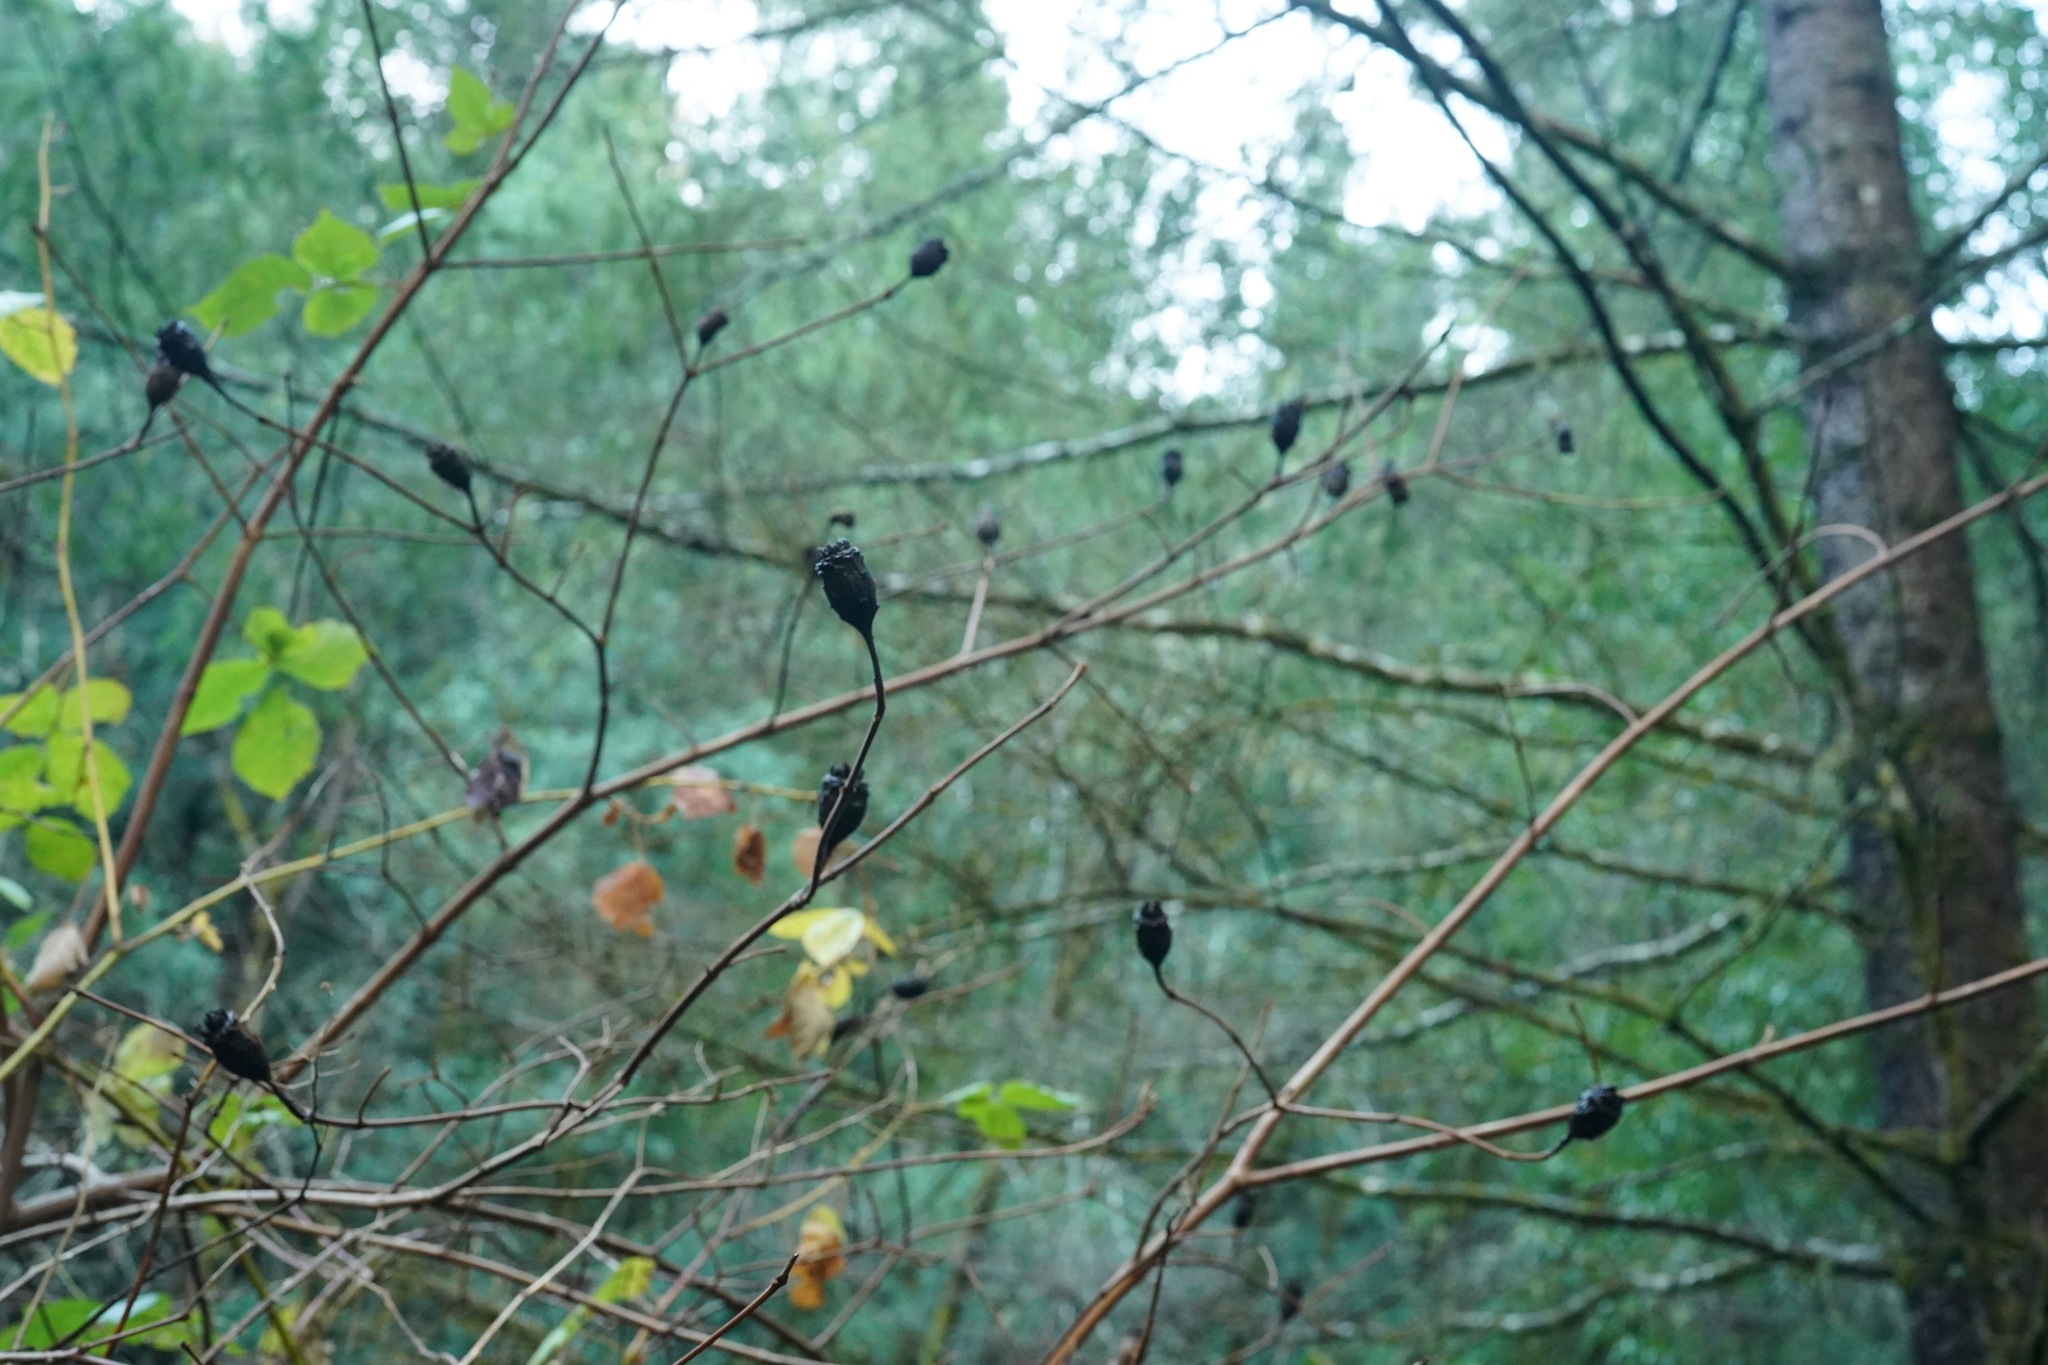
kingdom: Plantae
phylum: Tracheophyta
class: Magnoliopsida
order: Laurales
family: Calycanthaceae
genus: Calycanthus
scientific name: Calycanthus occidentalis
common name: California spicebush
